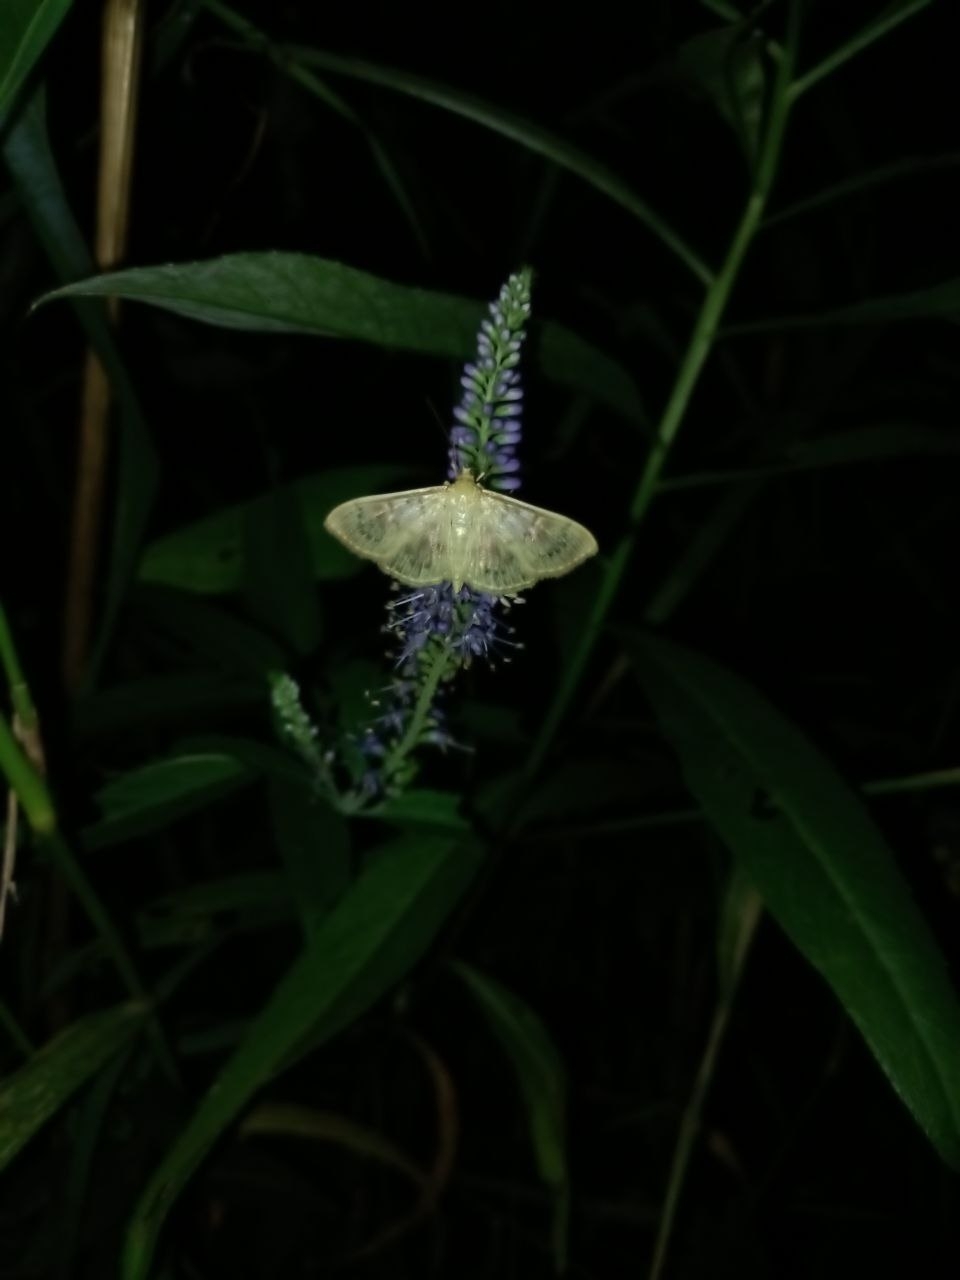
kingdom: Animalia
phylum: Arthropoda
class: Insecta
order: Lepidoptera
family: Crambidae
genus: Patania
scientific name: Patania ruralis
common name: Mother of pearl
